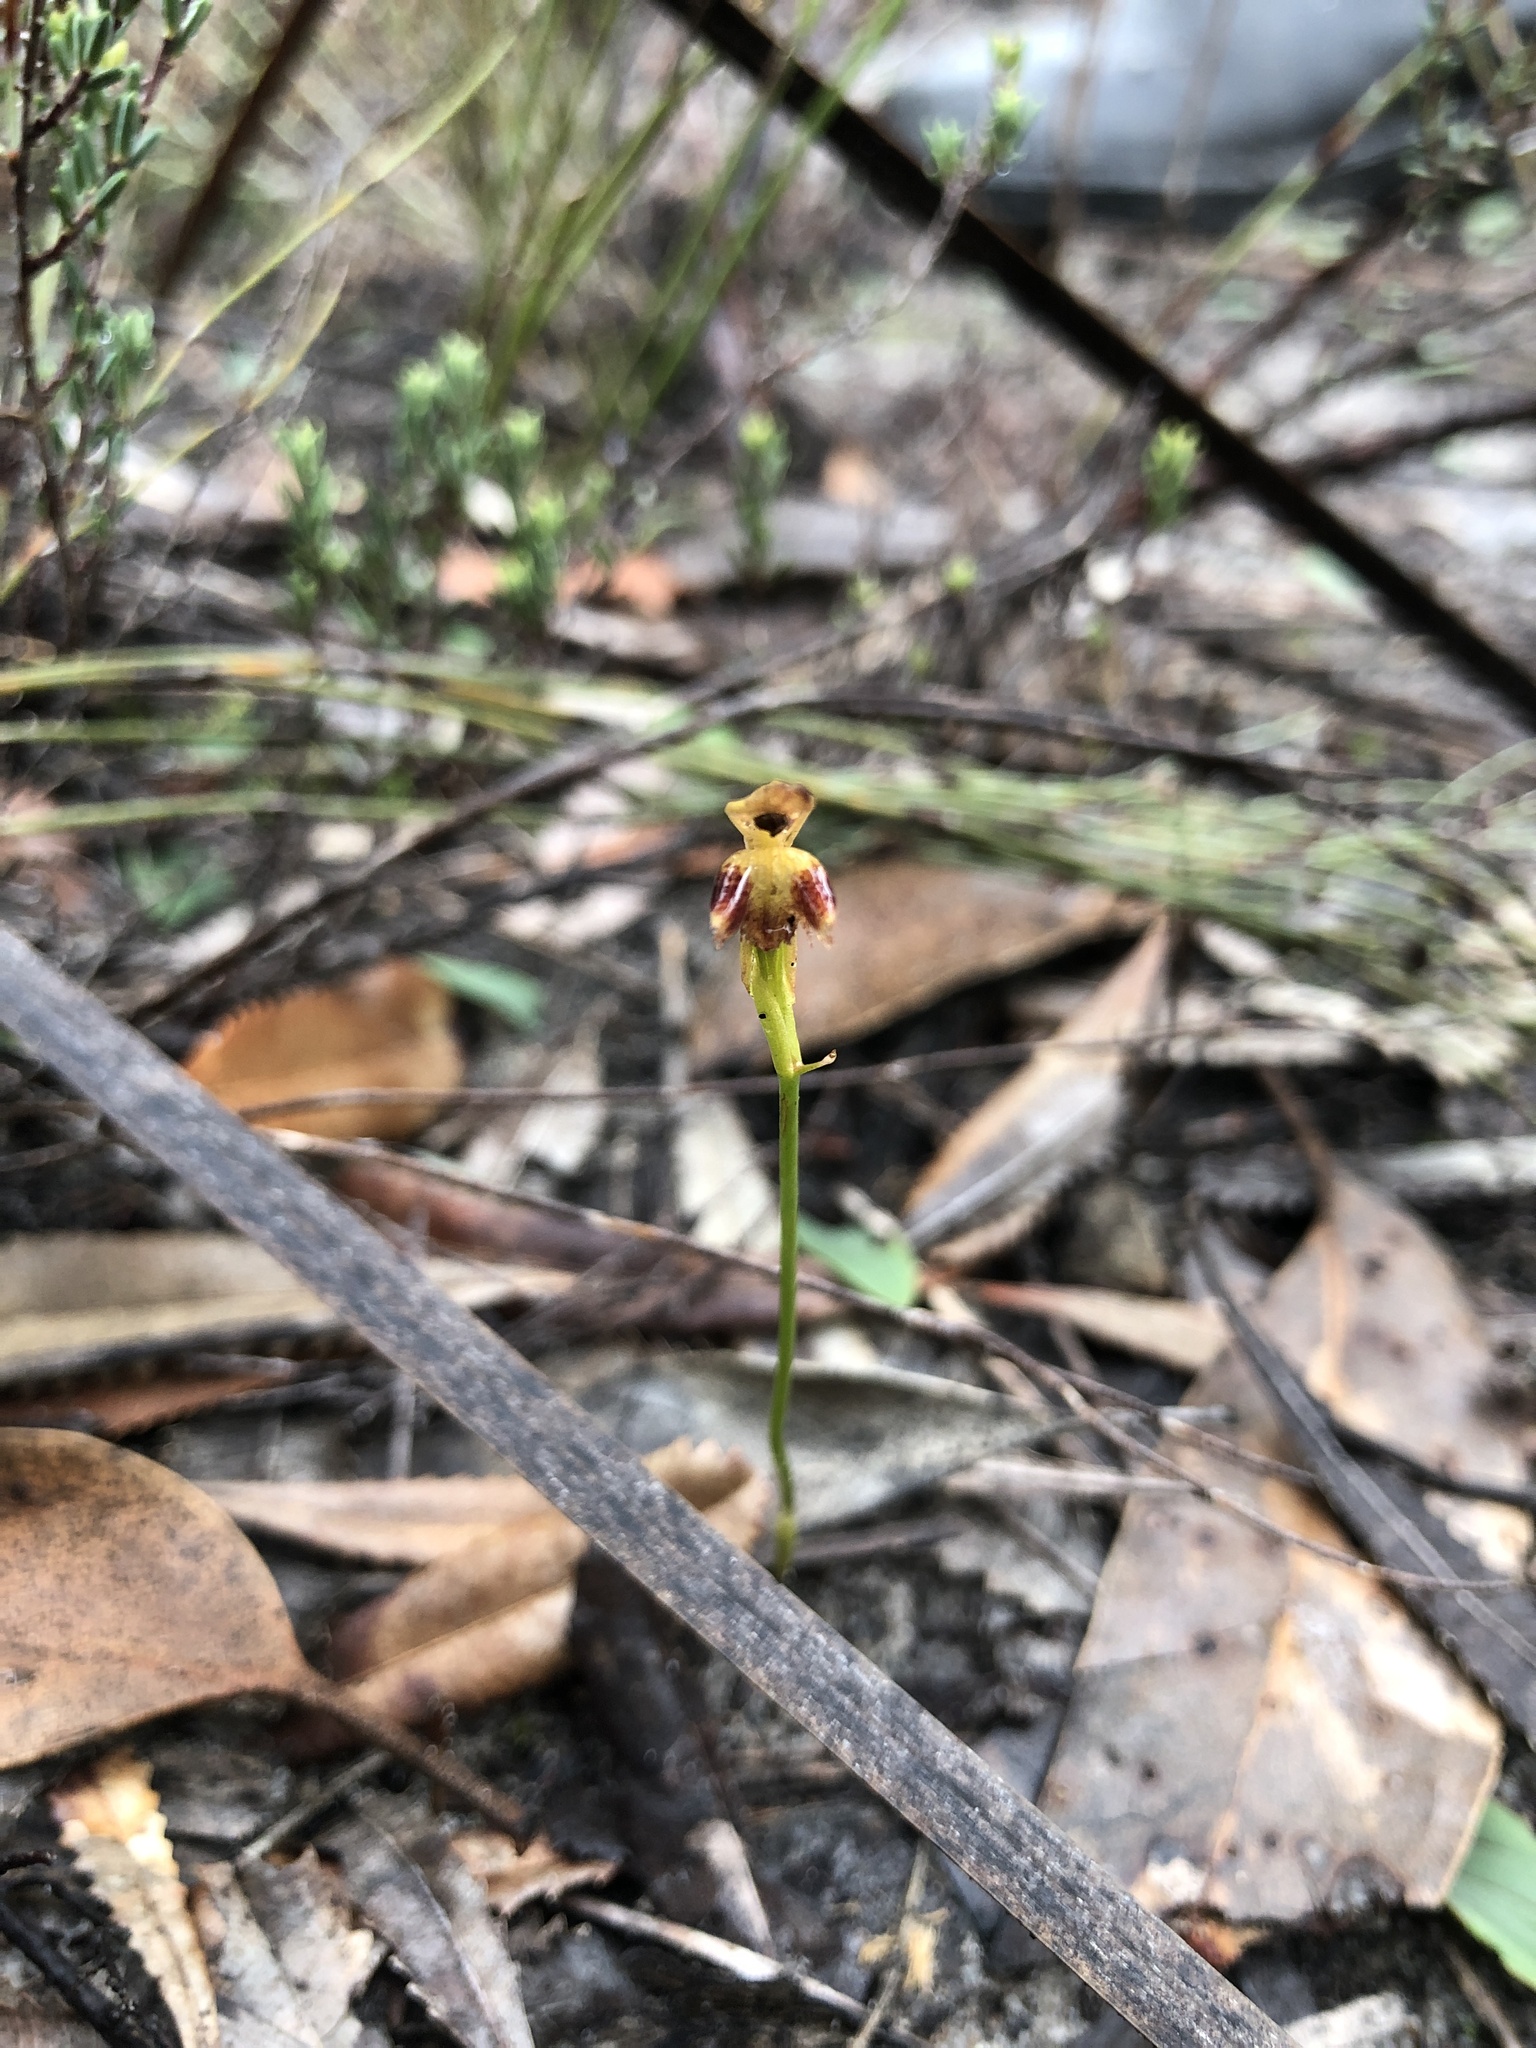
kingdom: Plantae
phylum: Tracheophyta
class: Liliopsida
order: Asparagales
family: Orchidaceae
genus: Leporella
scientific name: Leporella fimbriata
